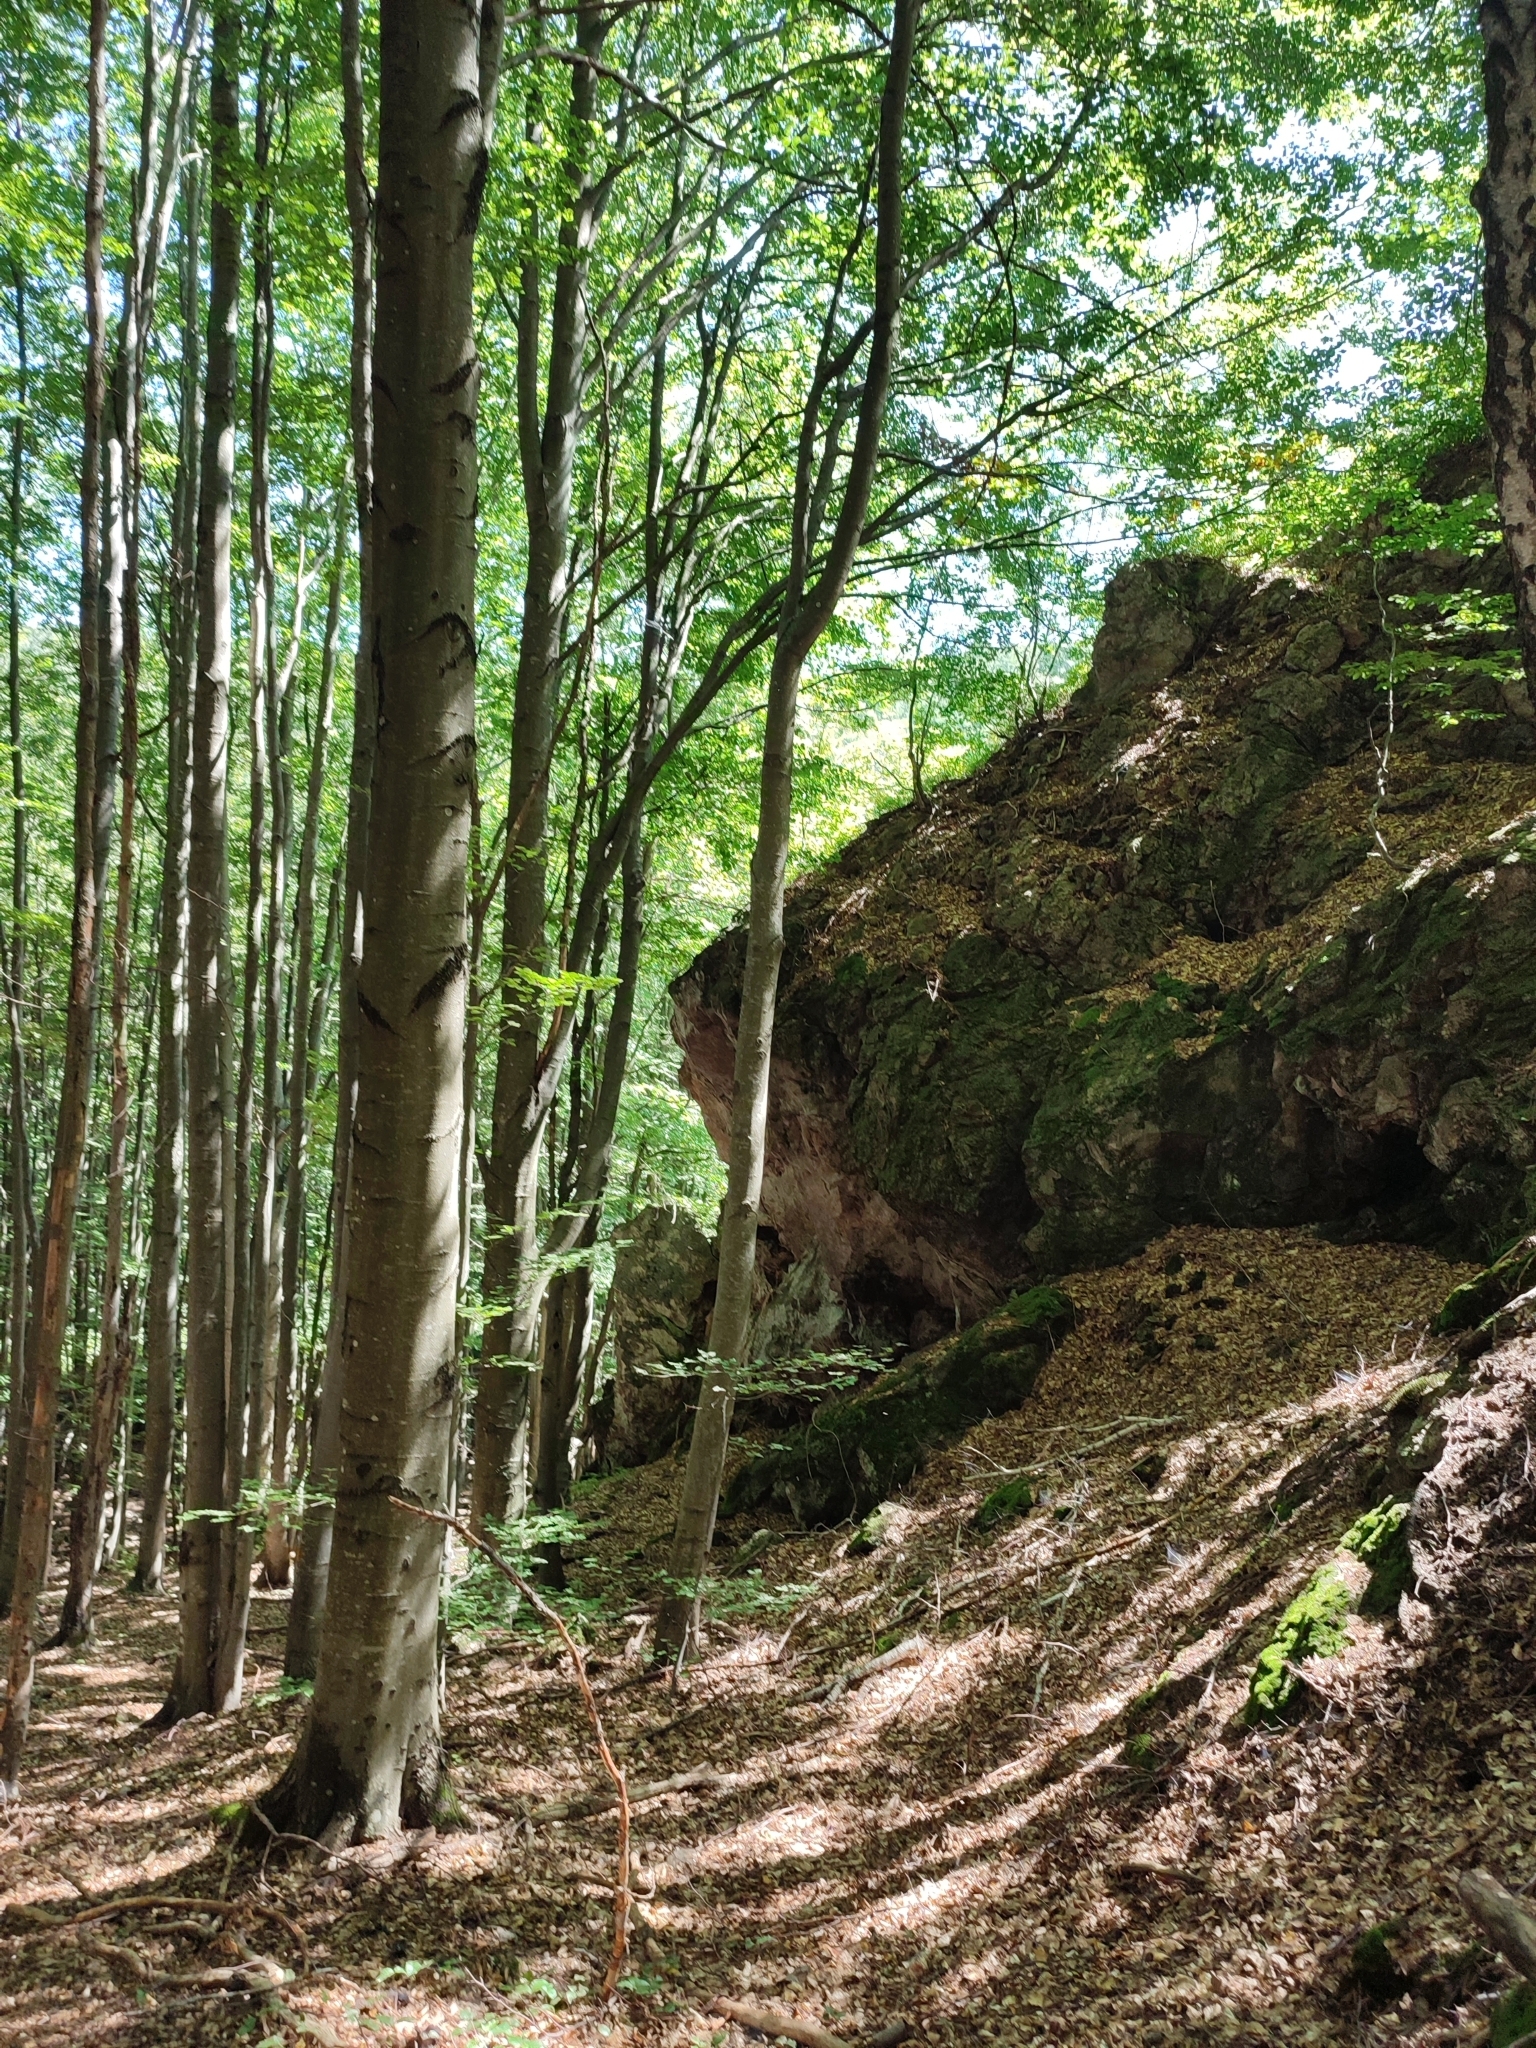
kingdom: Plantae
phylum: Tracheophyta
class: Magnoliopsida
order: Fagales
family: Fagaceae
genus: Fagus
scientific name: Fagus sylvatica
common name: Beech
